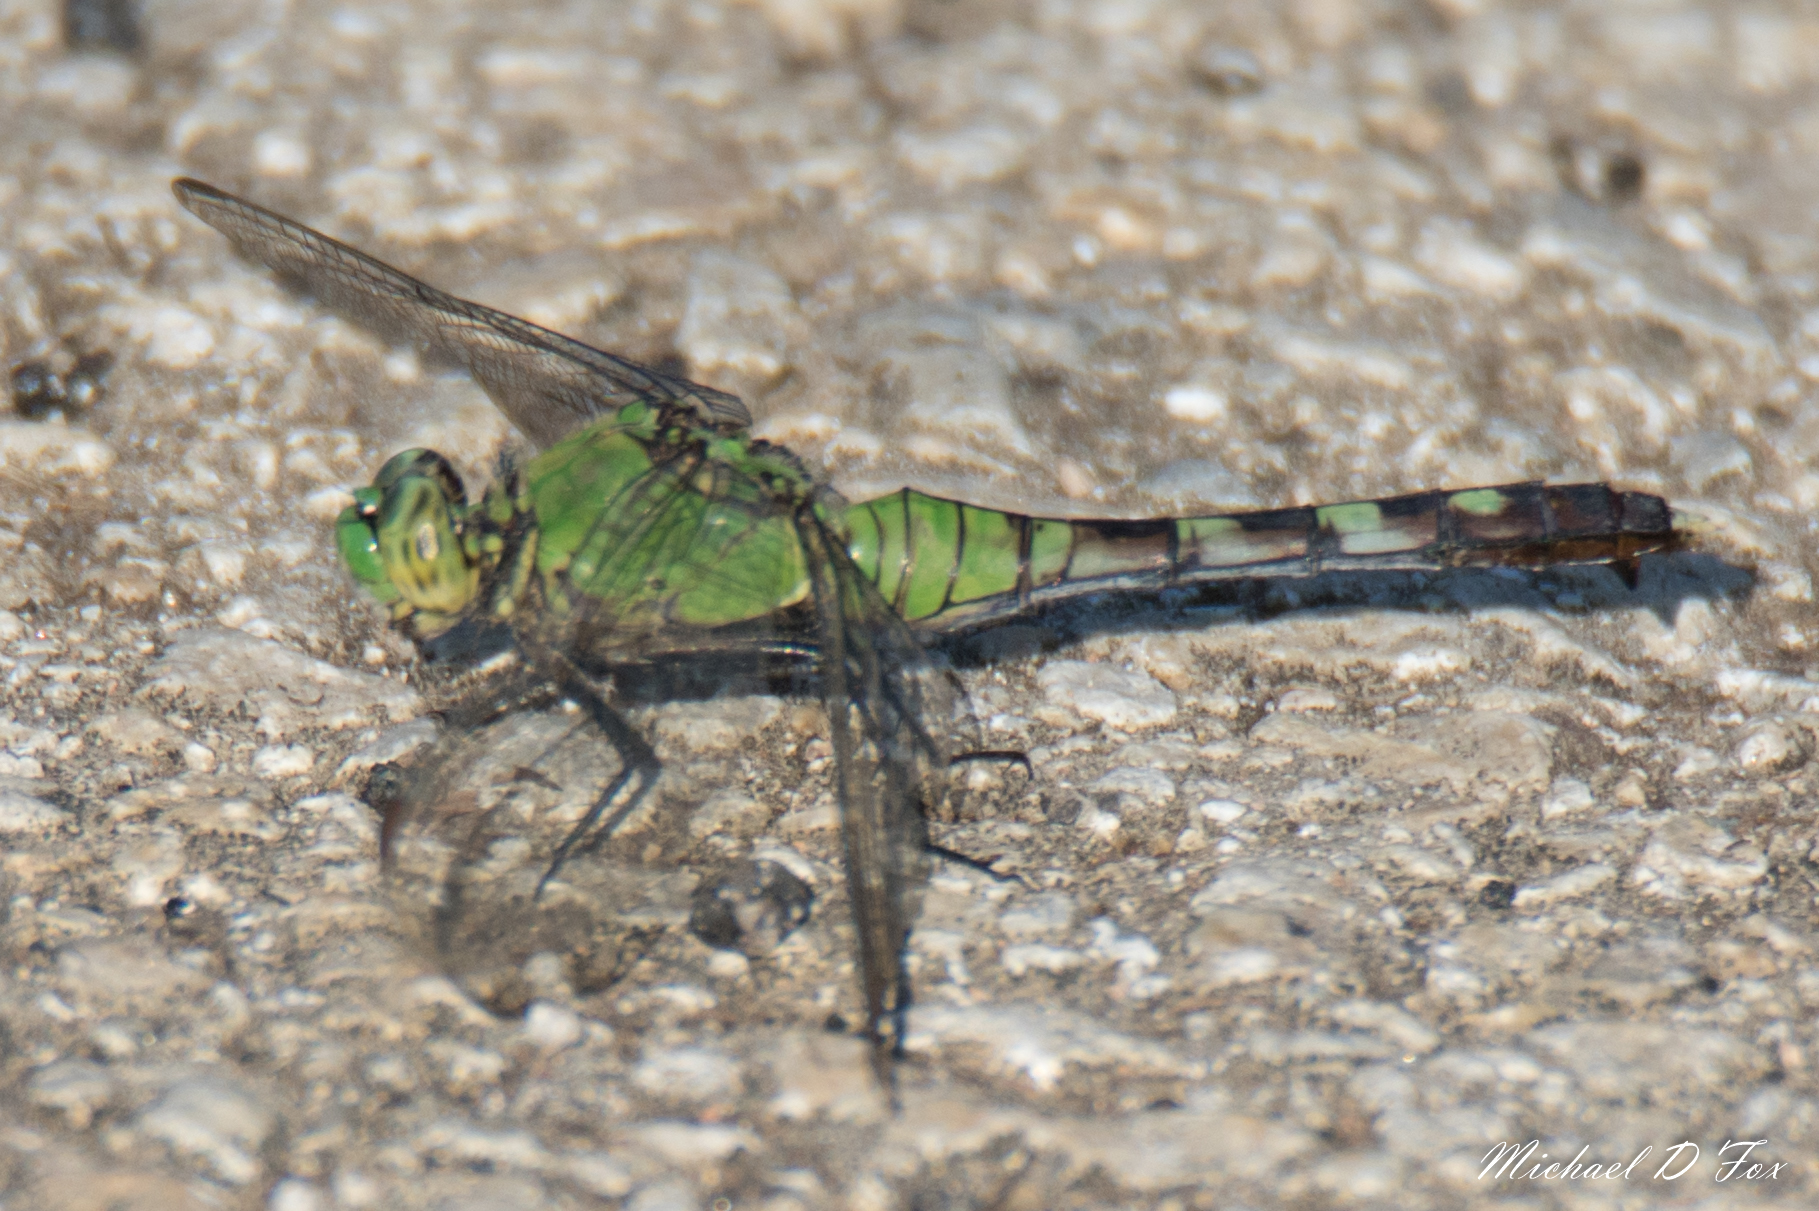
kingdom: Animalia
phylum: Arthropoda
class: Insecta
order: Odonata
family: Libellulidae
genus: Erythemis
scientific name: Erythemis simplicicollis
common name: Eastern pondhawk
